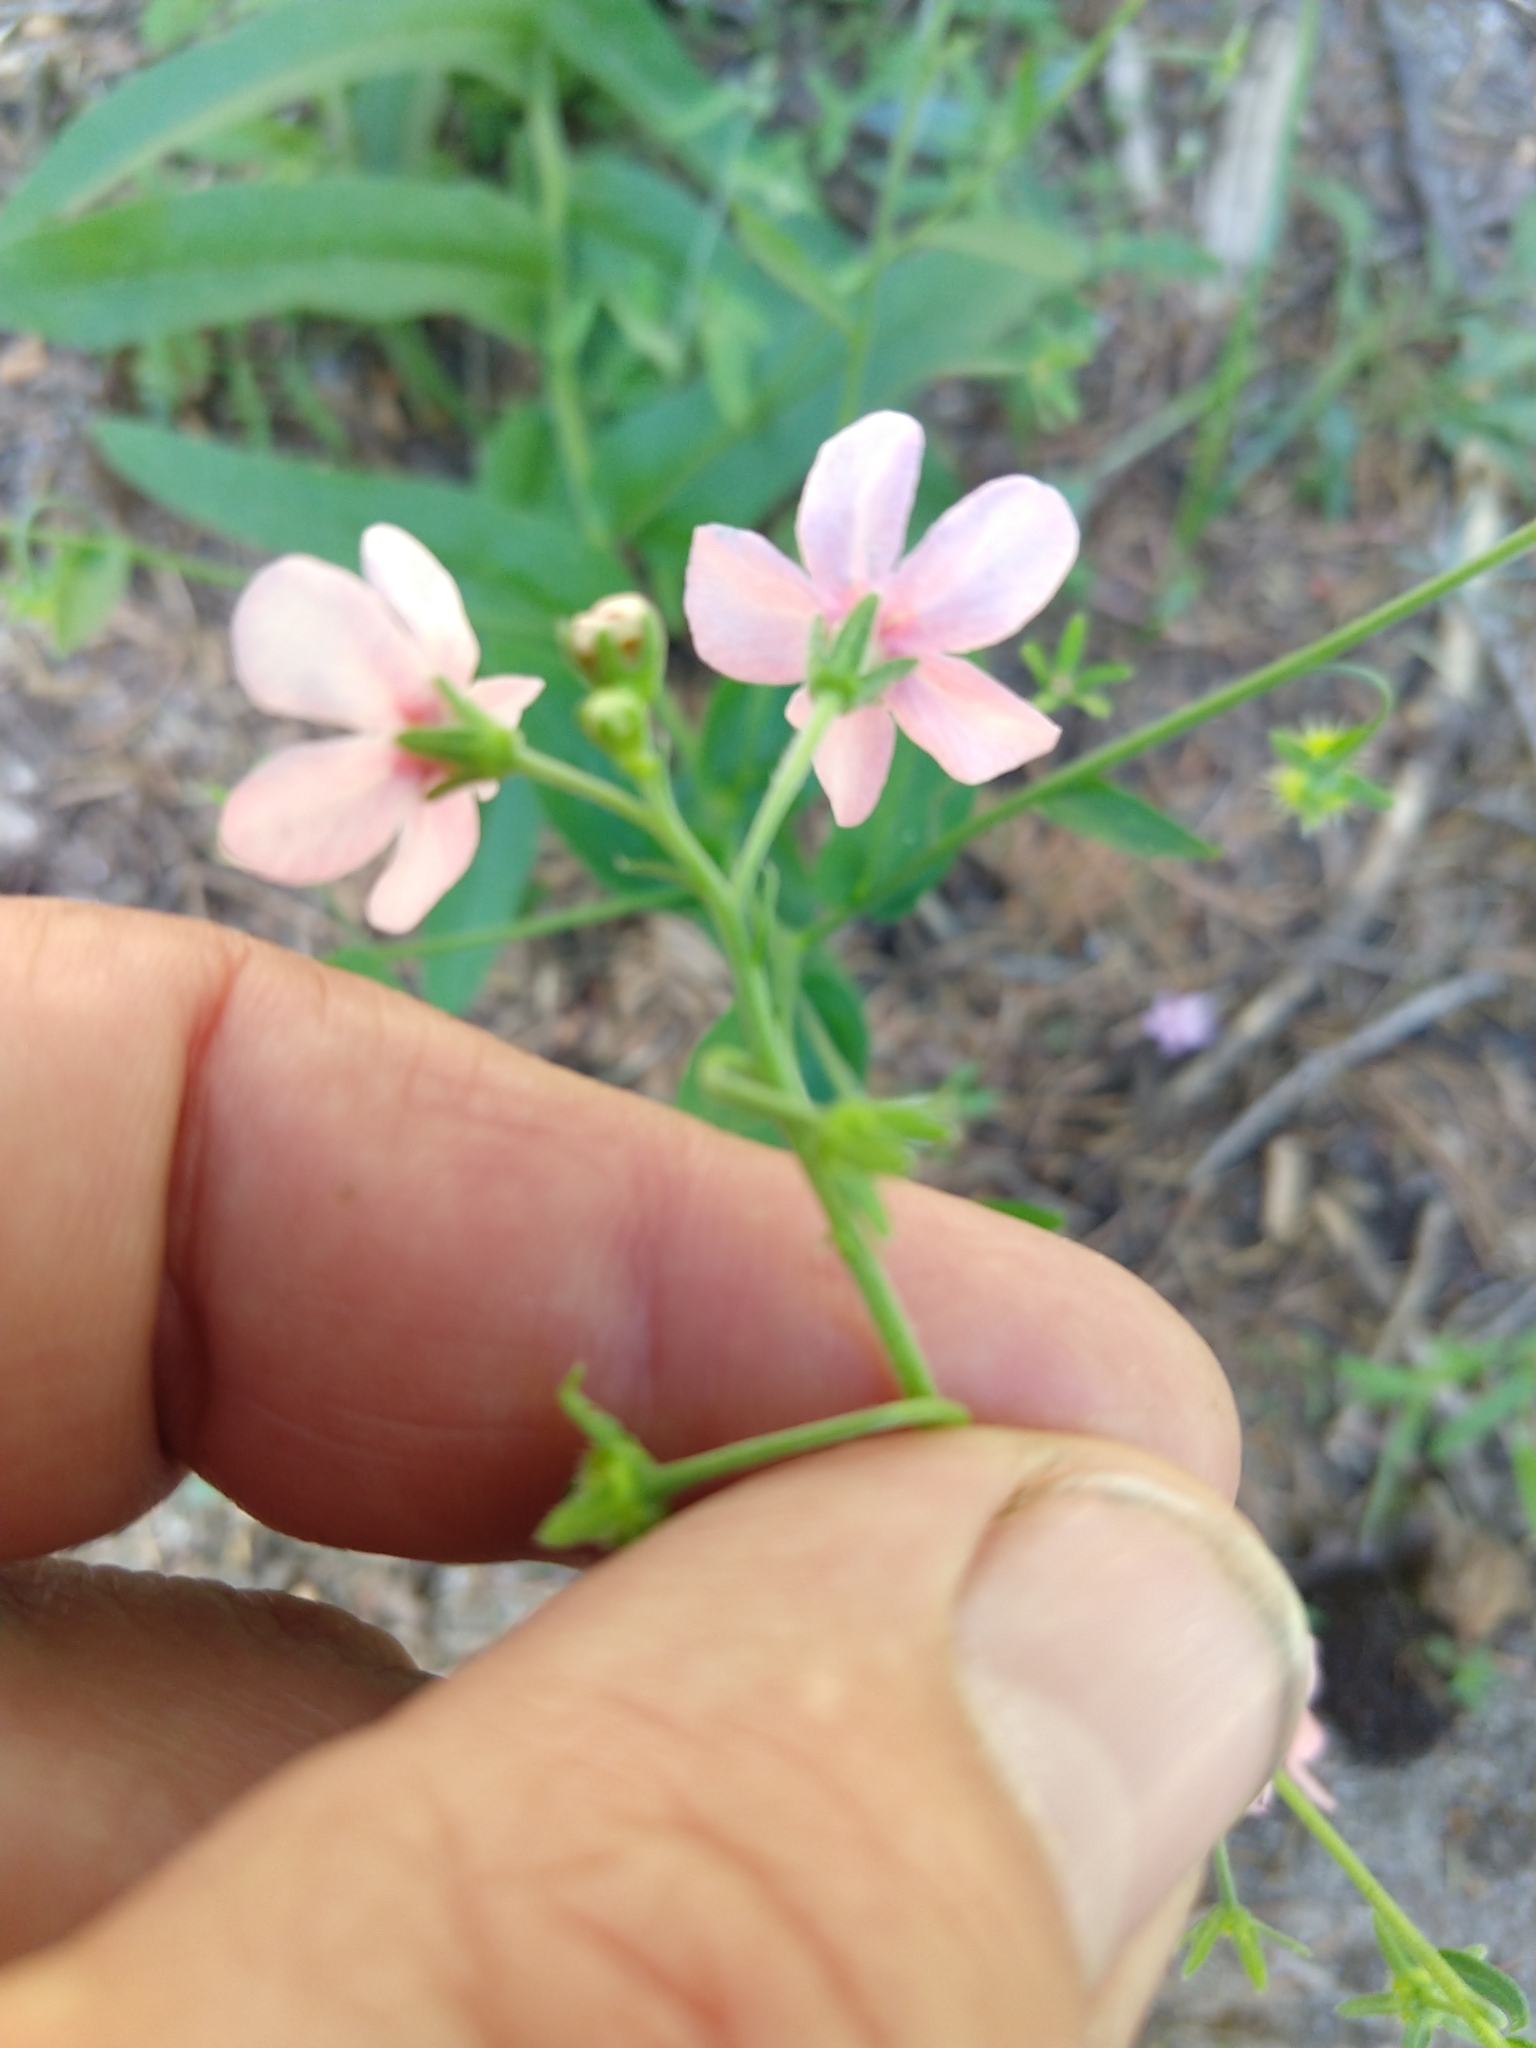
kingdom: Plantae
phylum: Tracheophyta
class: Magnoliopsida
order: Boraginales
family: Boraginaceae
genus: Hackelia
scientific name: Hackelia mundula
